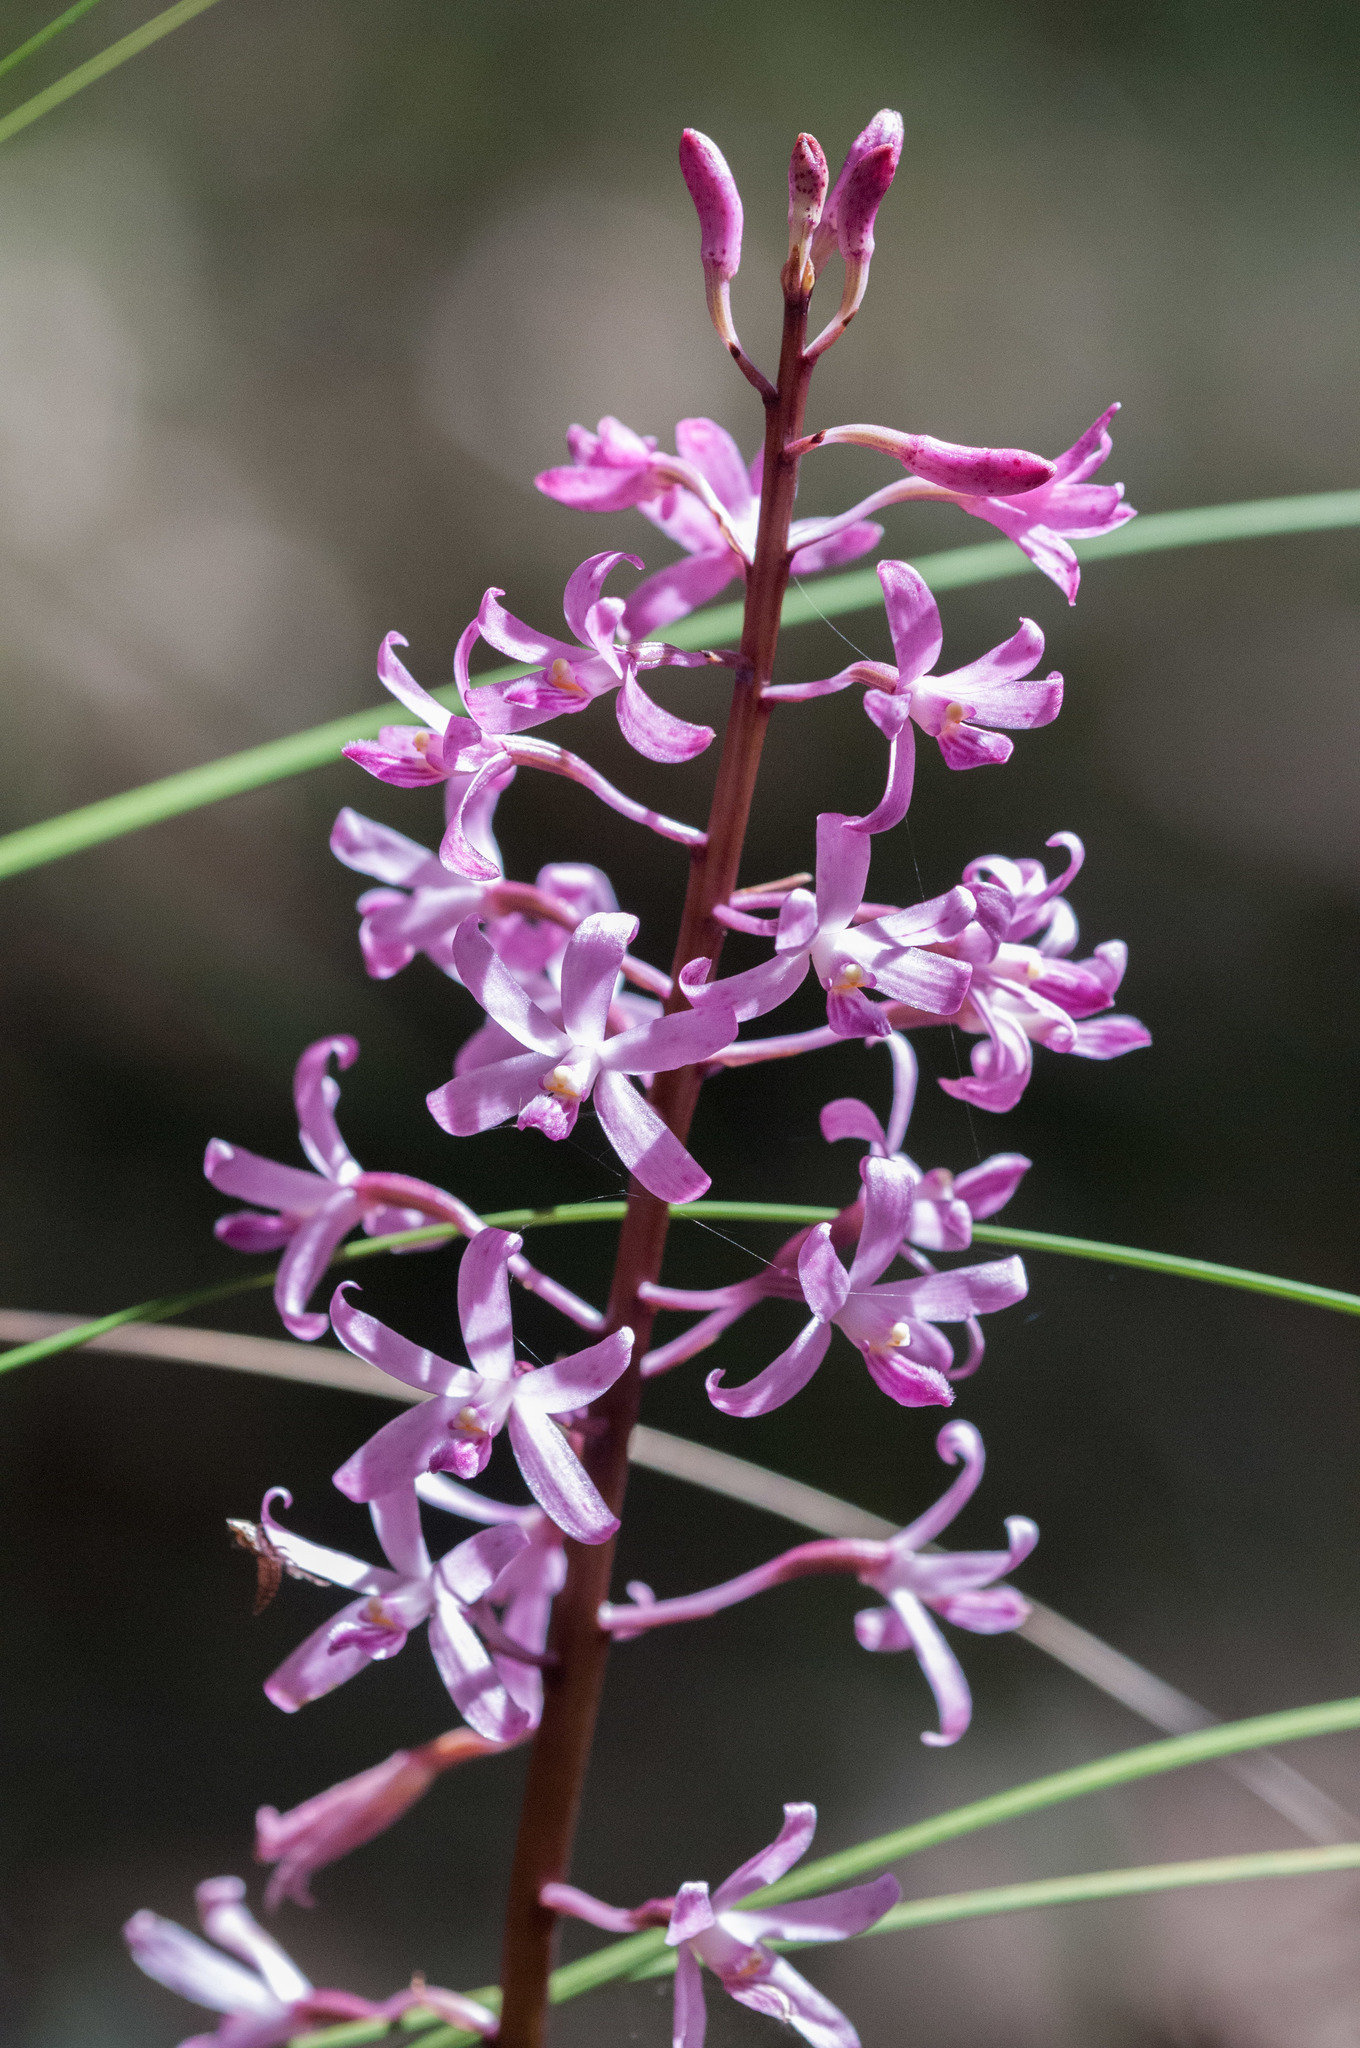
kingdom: Plantae
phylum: Tracheophyta
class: Liliopsida
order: Asparagales
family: Orchidaceae
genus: Dipodium
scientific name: Dipodium roseum
